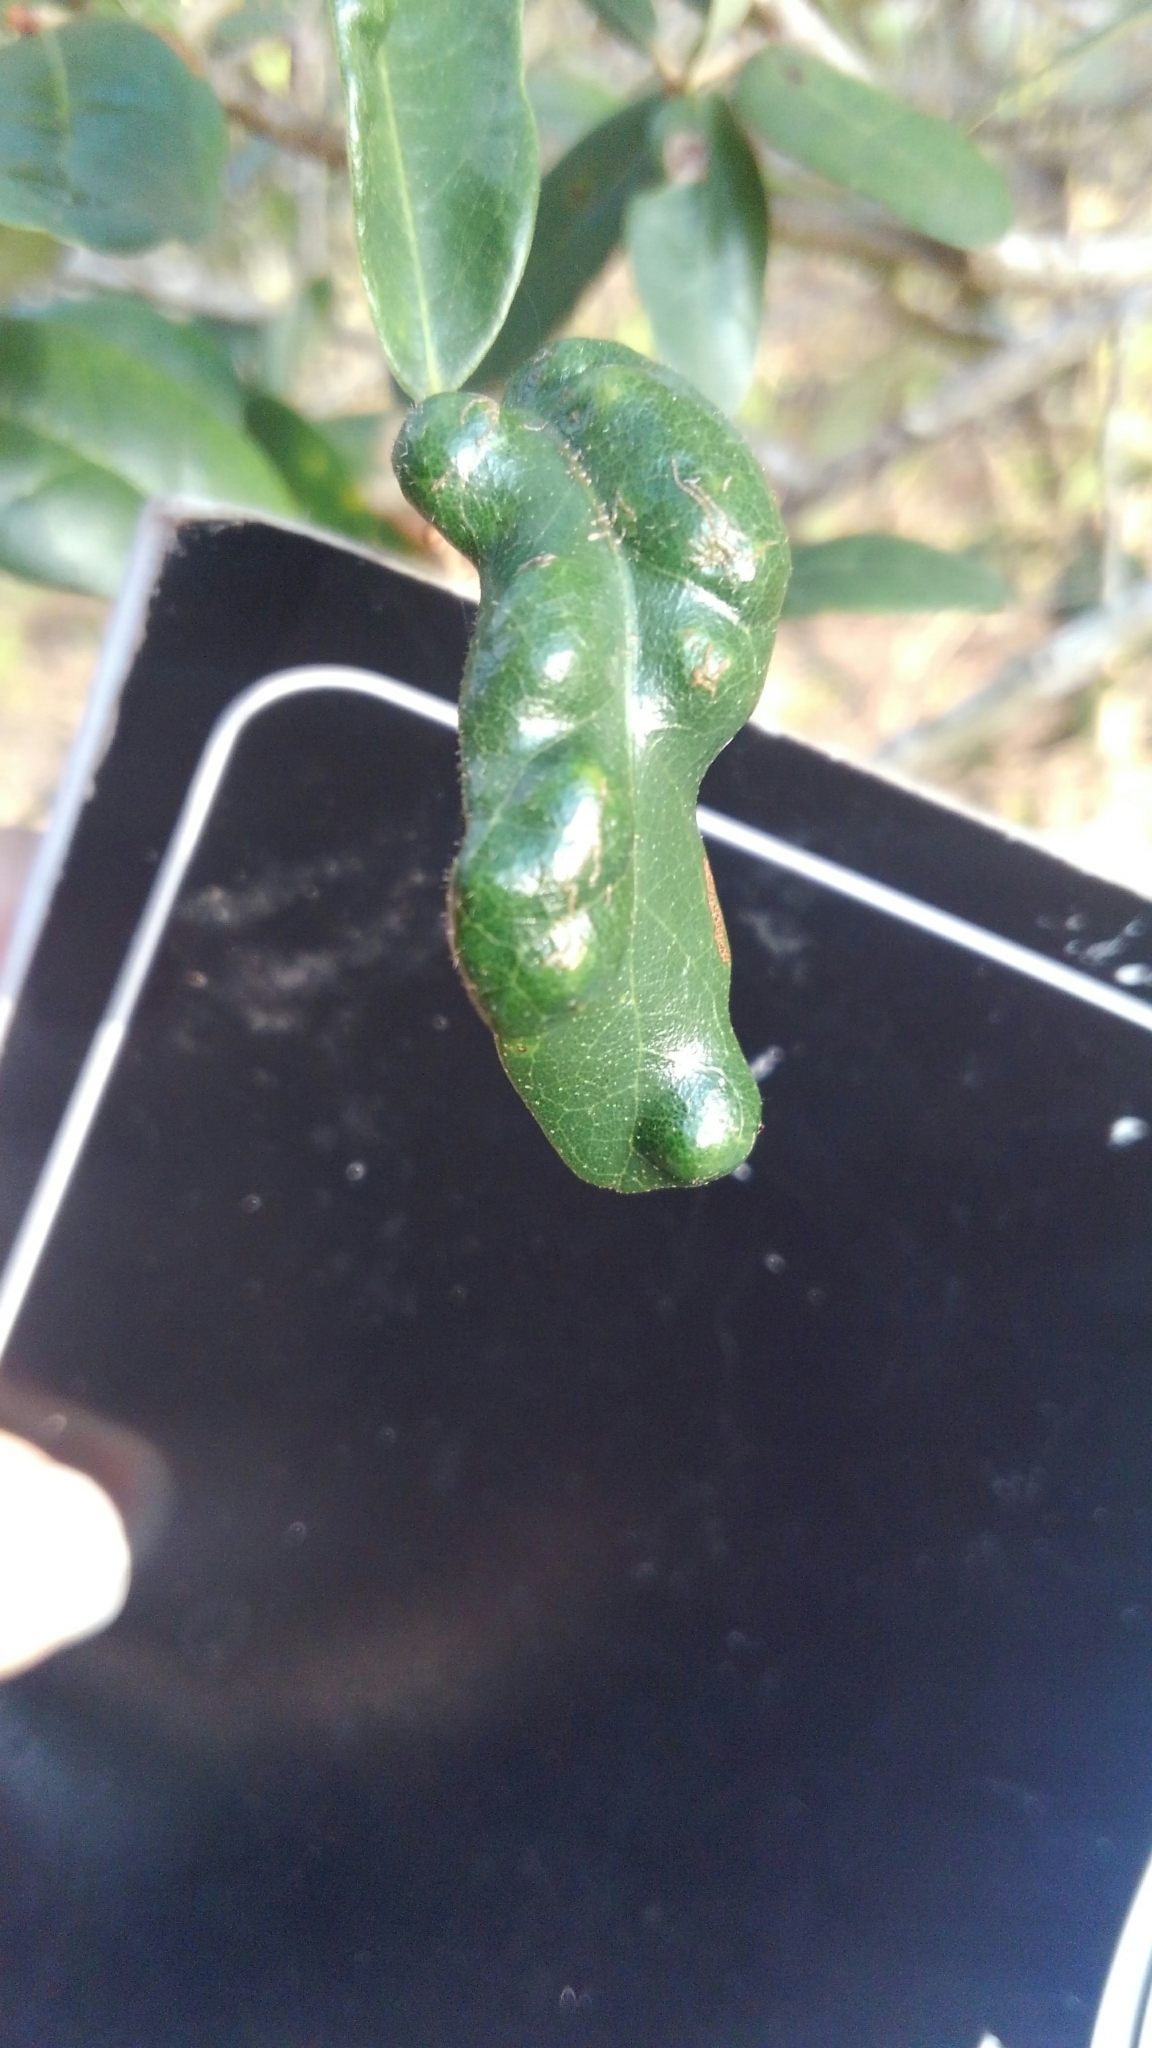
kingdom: Animalia
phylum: Arthropoda
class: Arachnida
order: Trombidiformes
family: Eriophyidae
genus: Aceria
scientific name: Aceria quercina
